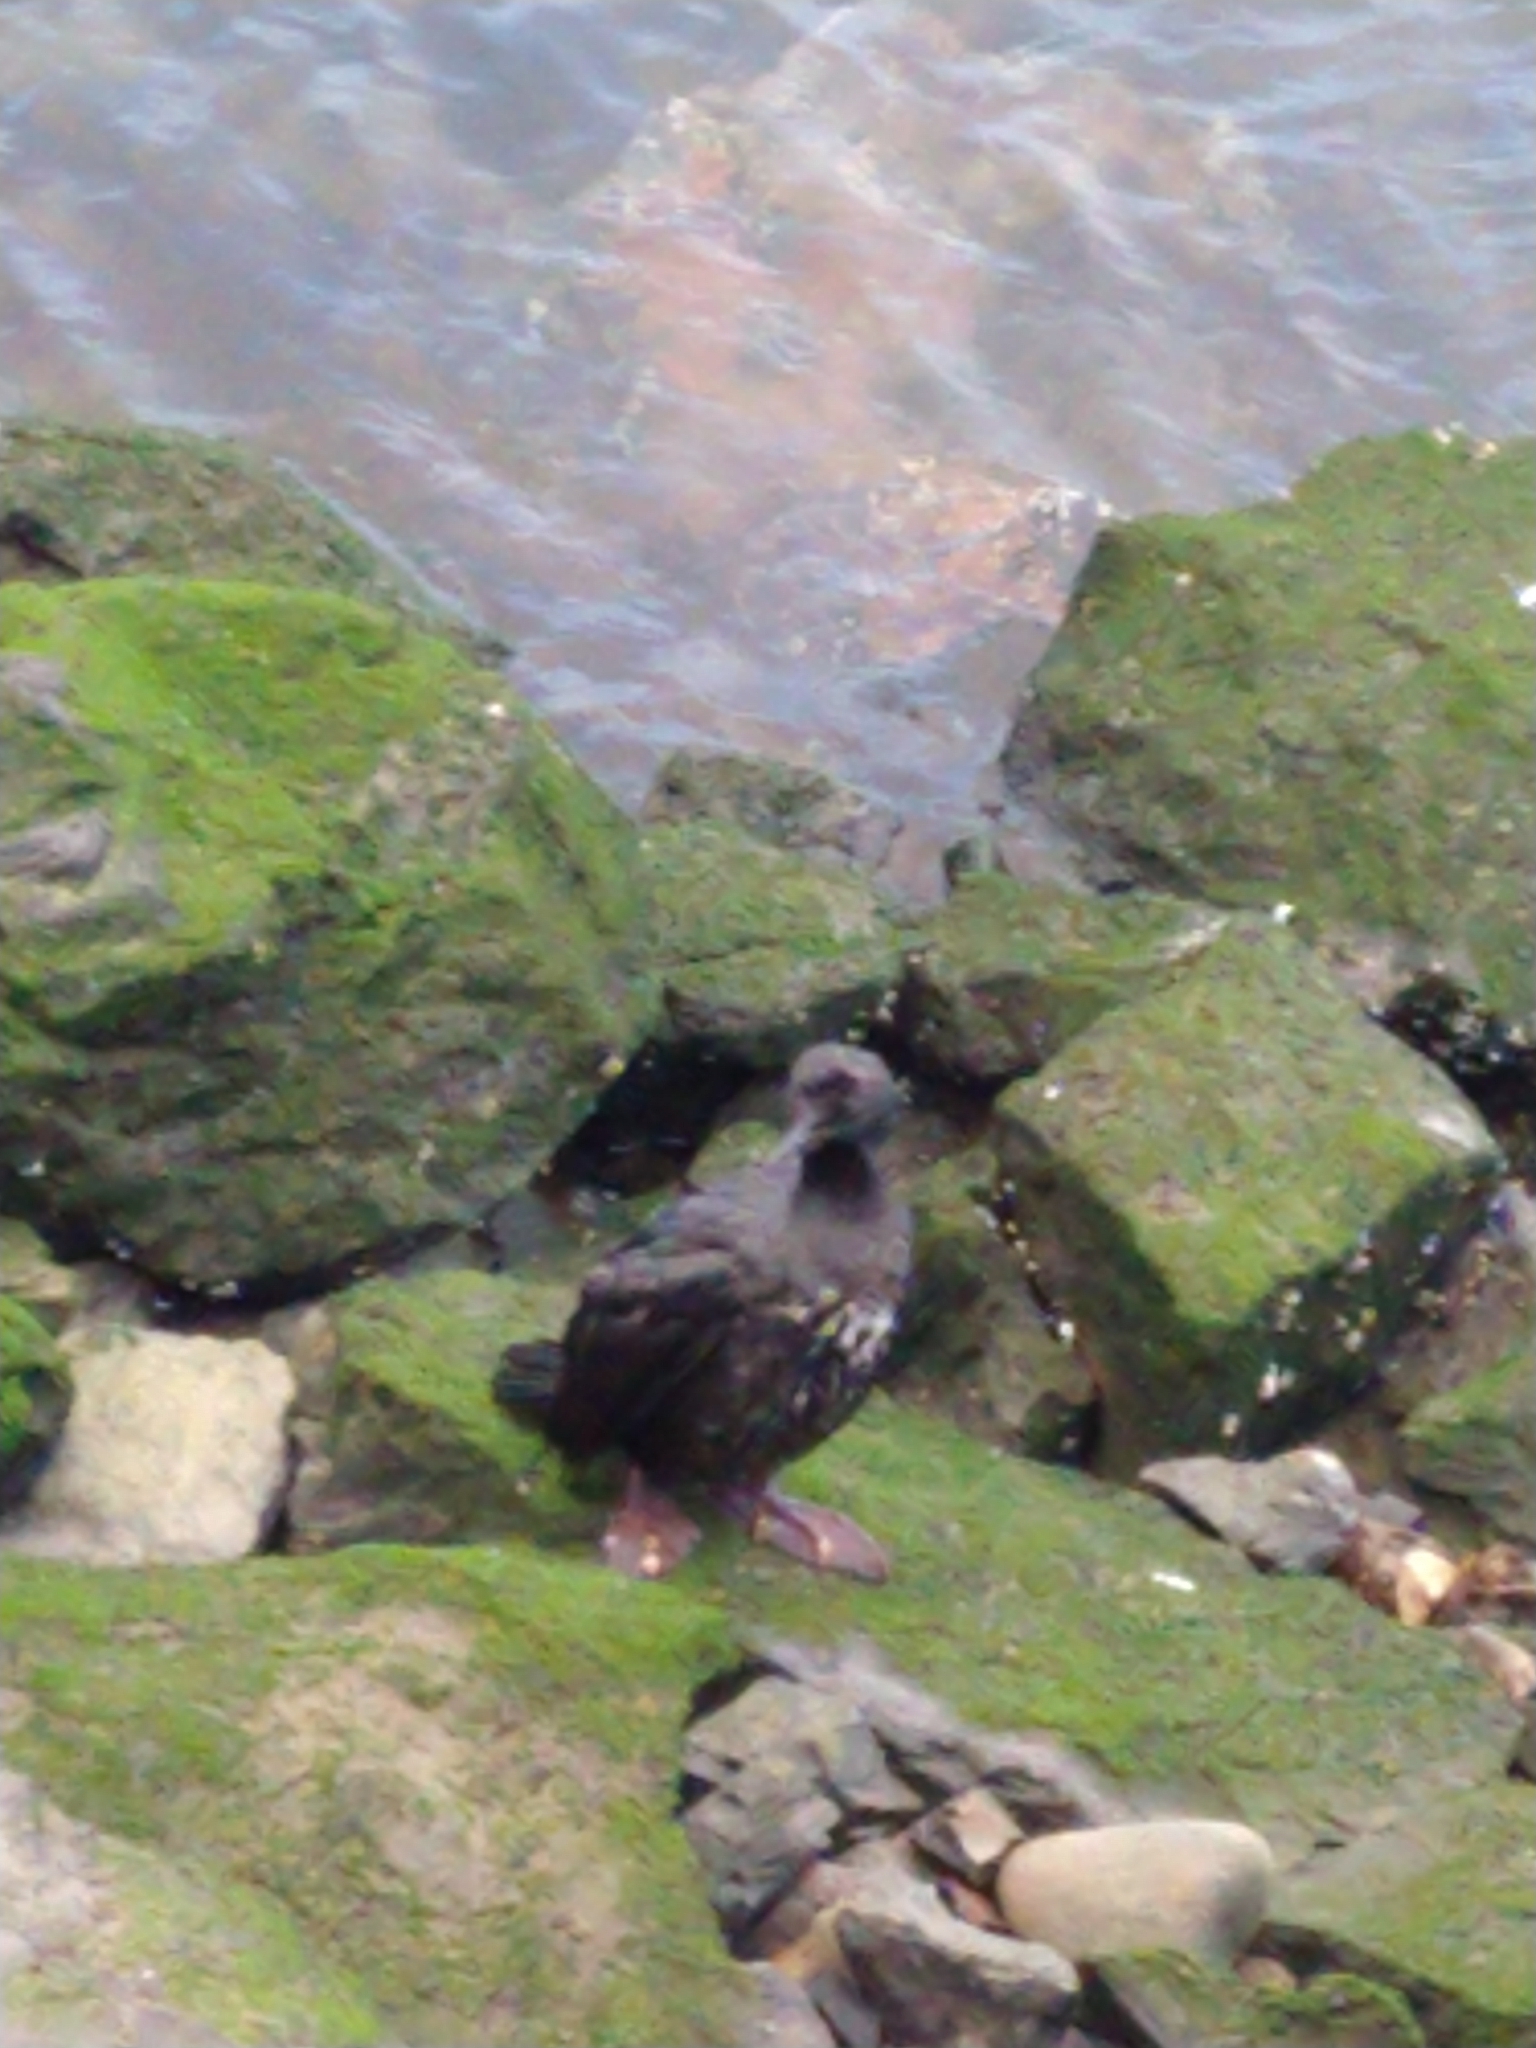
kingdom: Animalia
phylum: Chordata
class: Aves
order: Suliformes
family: Phalacrocoracidae
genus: Phalacrocorax
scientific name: Phalacrocorax magellanicus
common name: Rock shag
